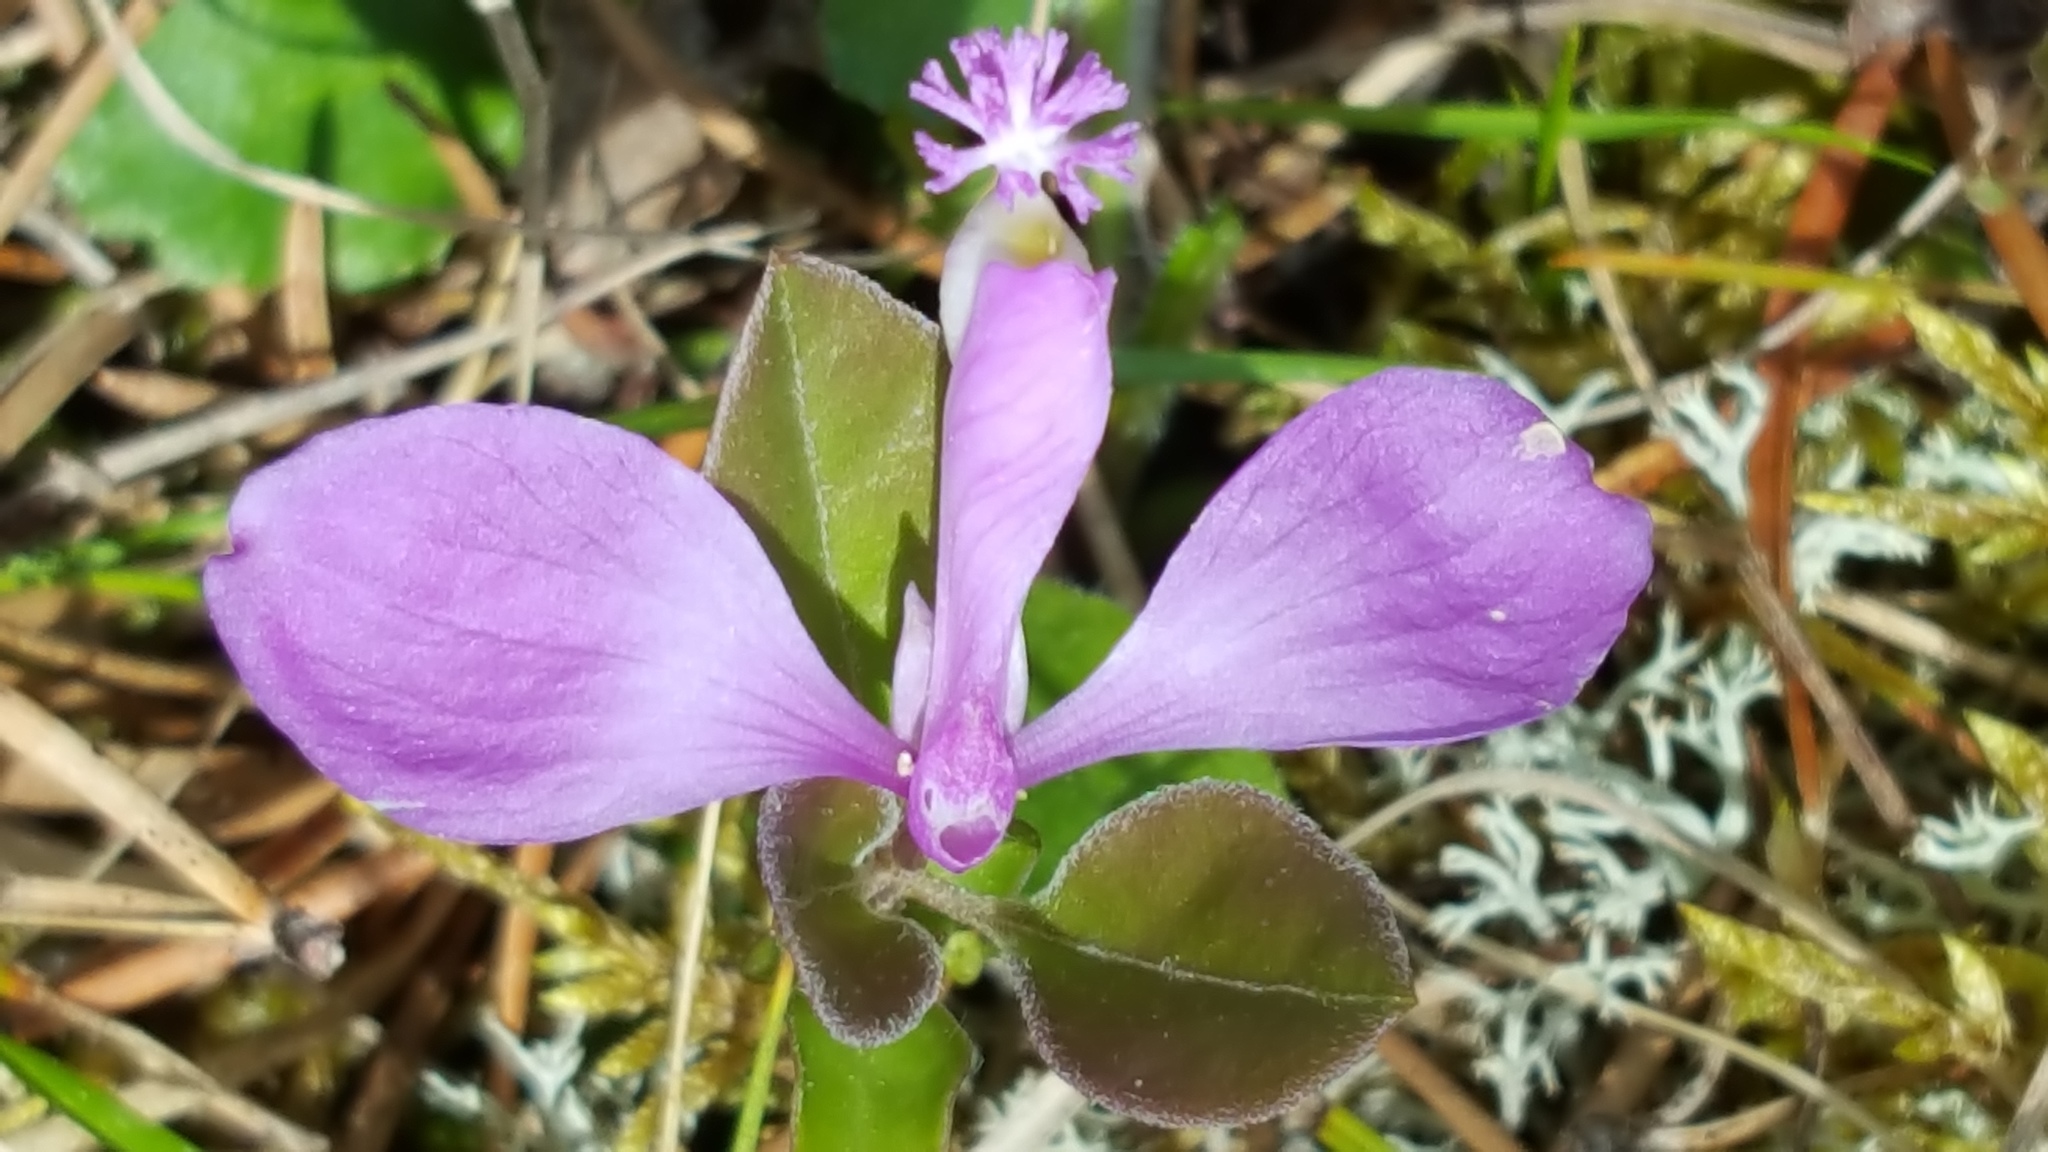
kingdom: Plantae
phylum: Tracheophyta
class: Magnoliopsida
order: Fabales
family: Polygalaceae
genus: Polygaloides
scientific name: Polygaloides paucifolia
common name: Bird-on-the-wing
